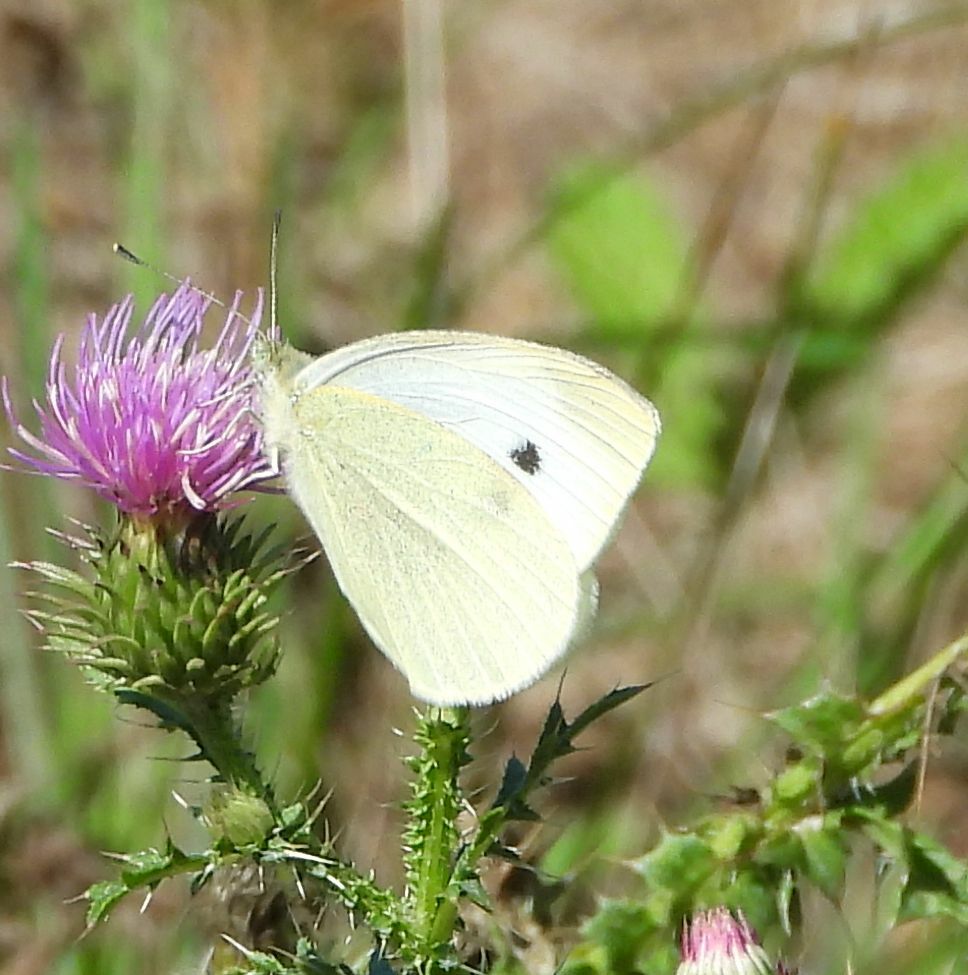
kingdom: Animalia
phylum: Arthropoda
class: Insecta
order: Lepidoptera
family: Pieridae
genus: Pieris
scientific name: Pieris rapae
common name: Small white
